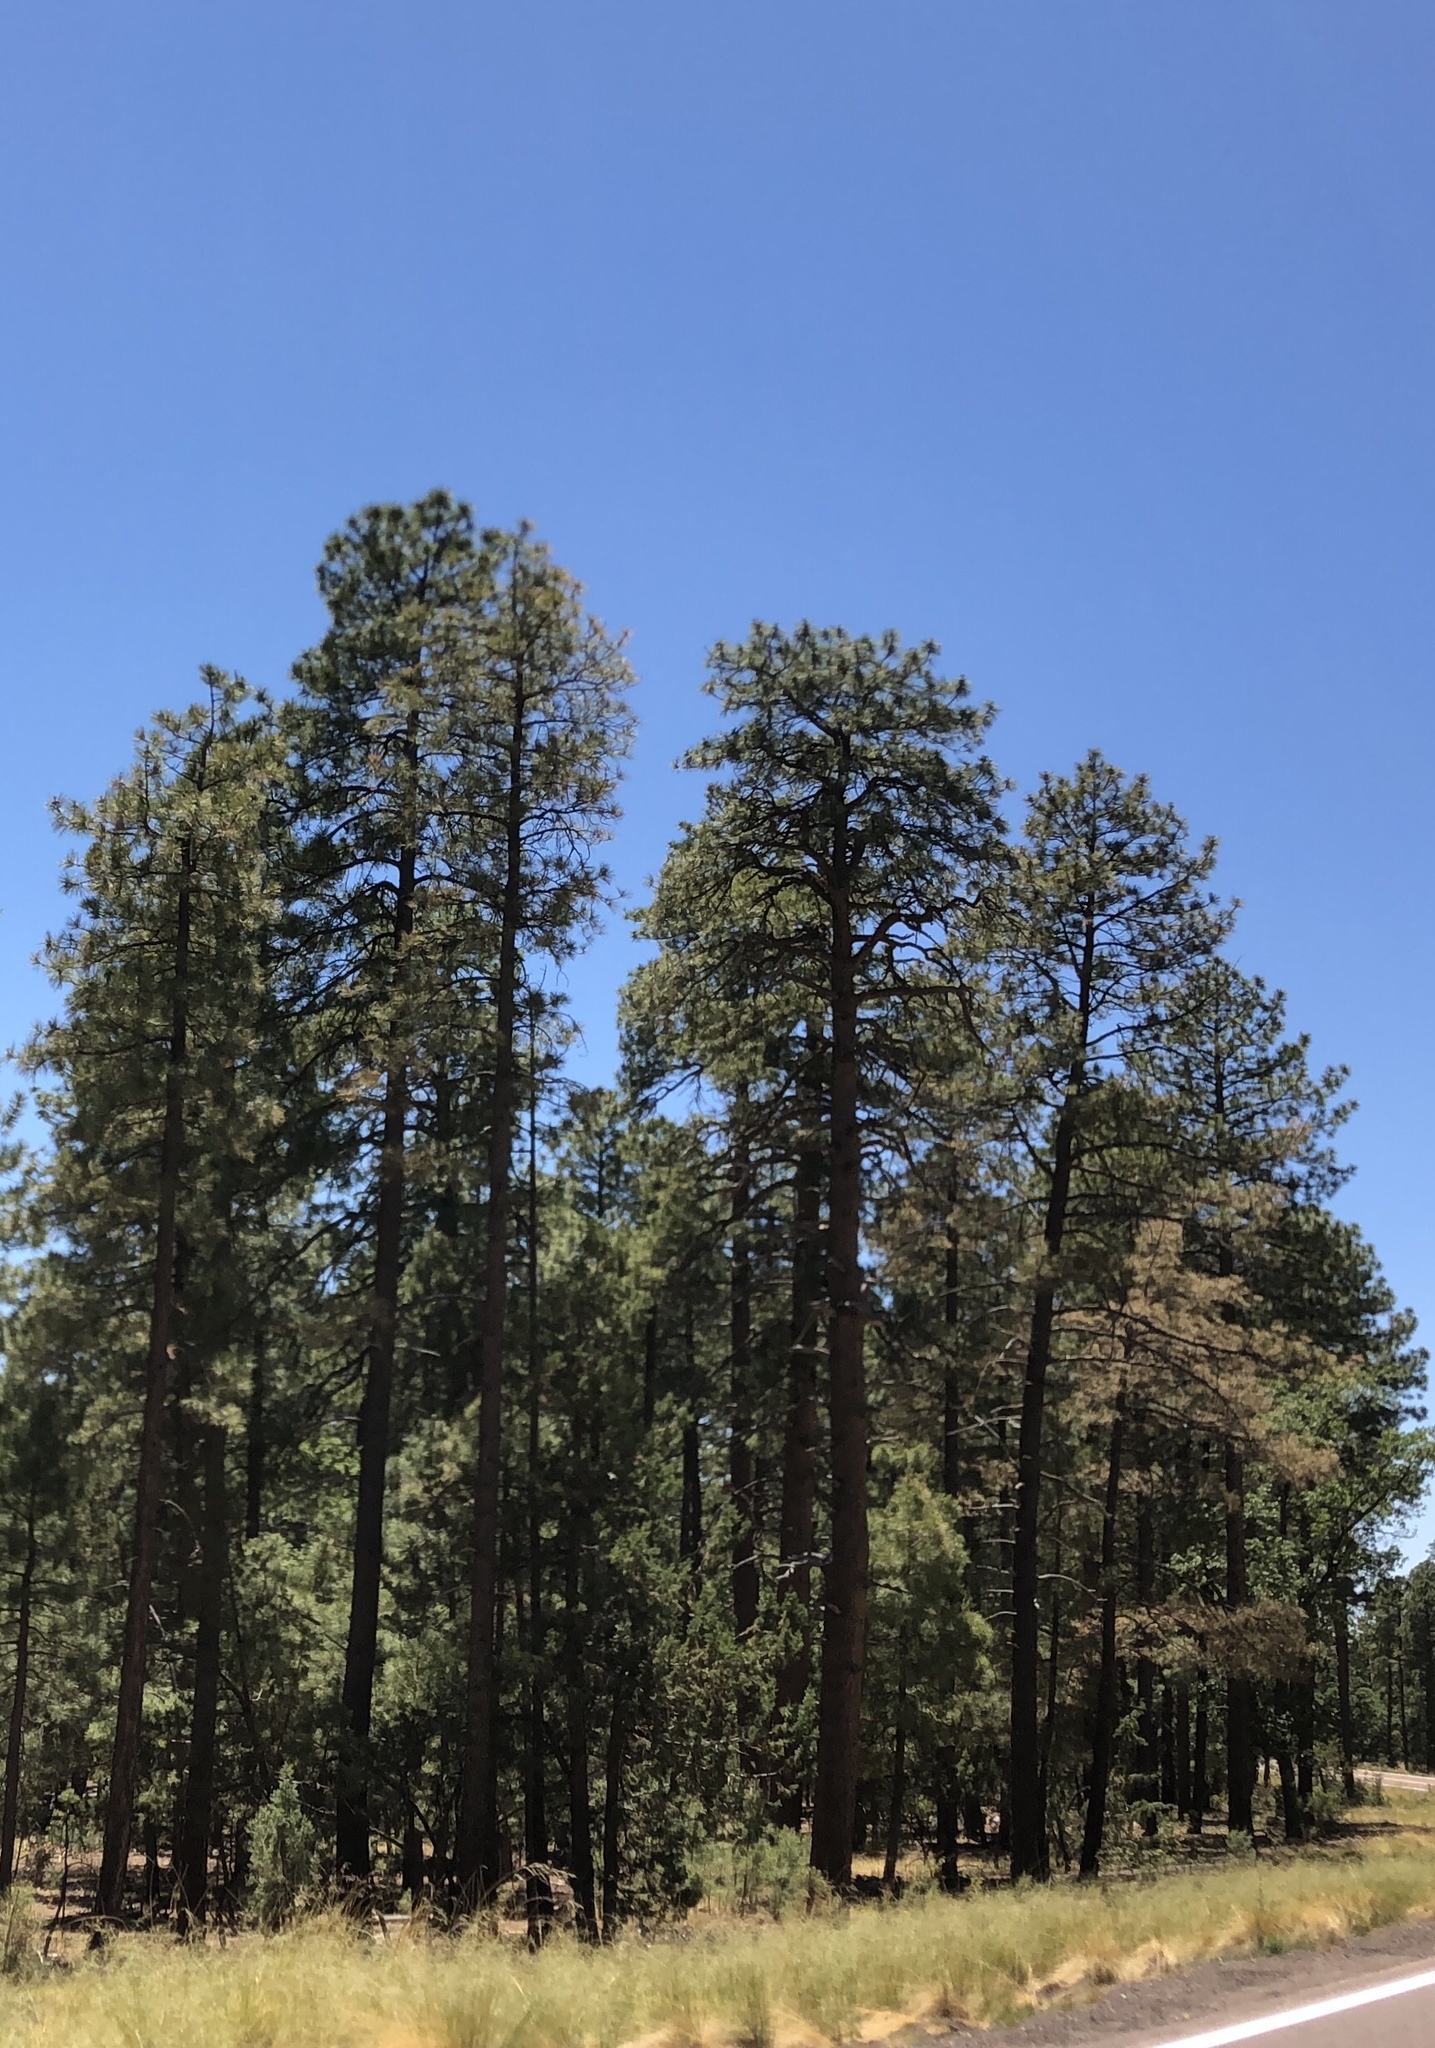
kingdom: Plantae
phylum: Tracheophyta
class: Pinopsida
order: Pinales
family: Pinaceae
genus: Pinus
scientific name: Pinus ponderosa
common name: Western yellow-pine
